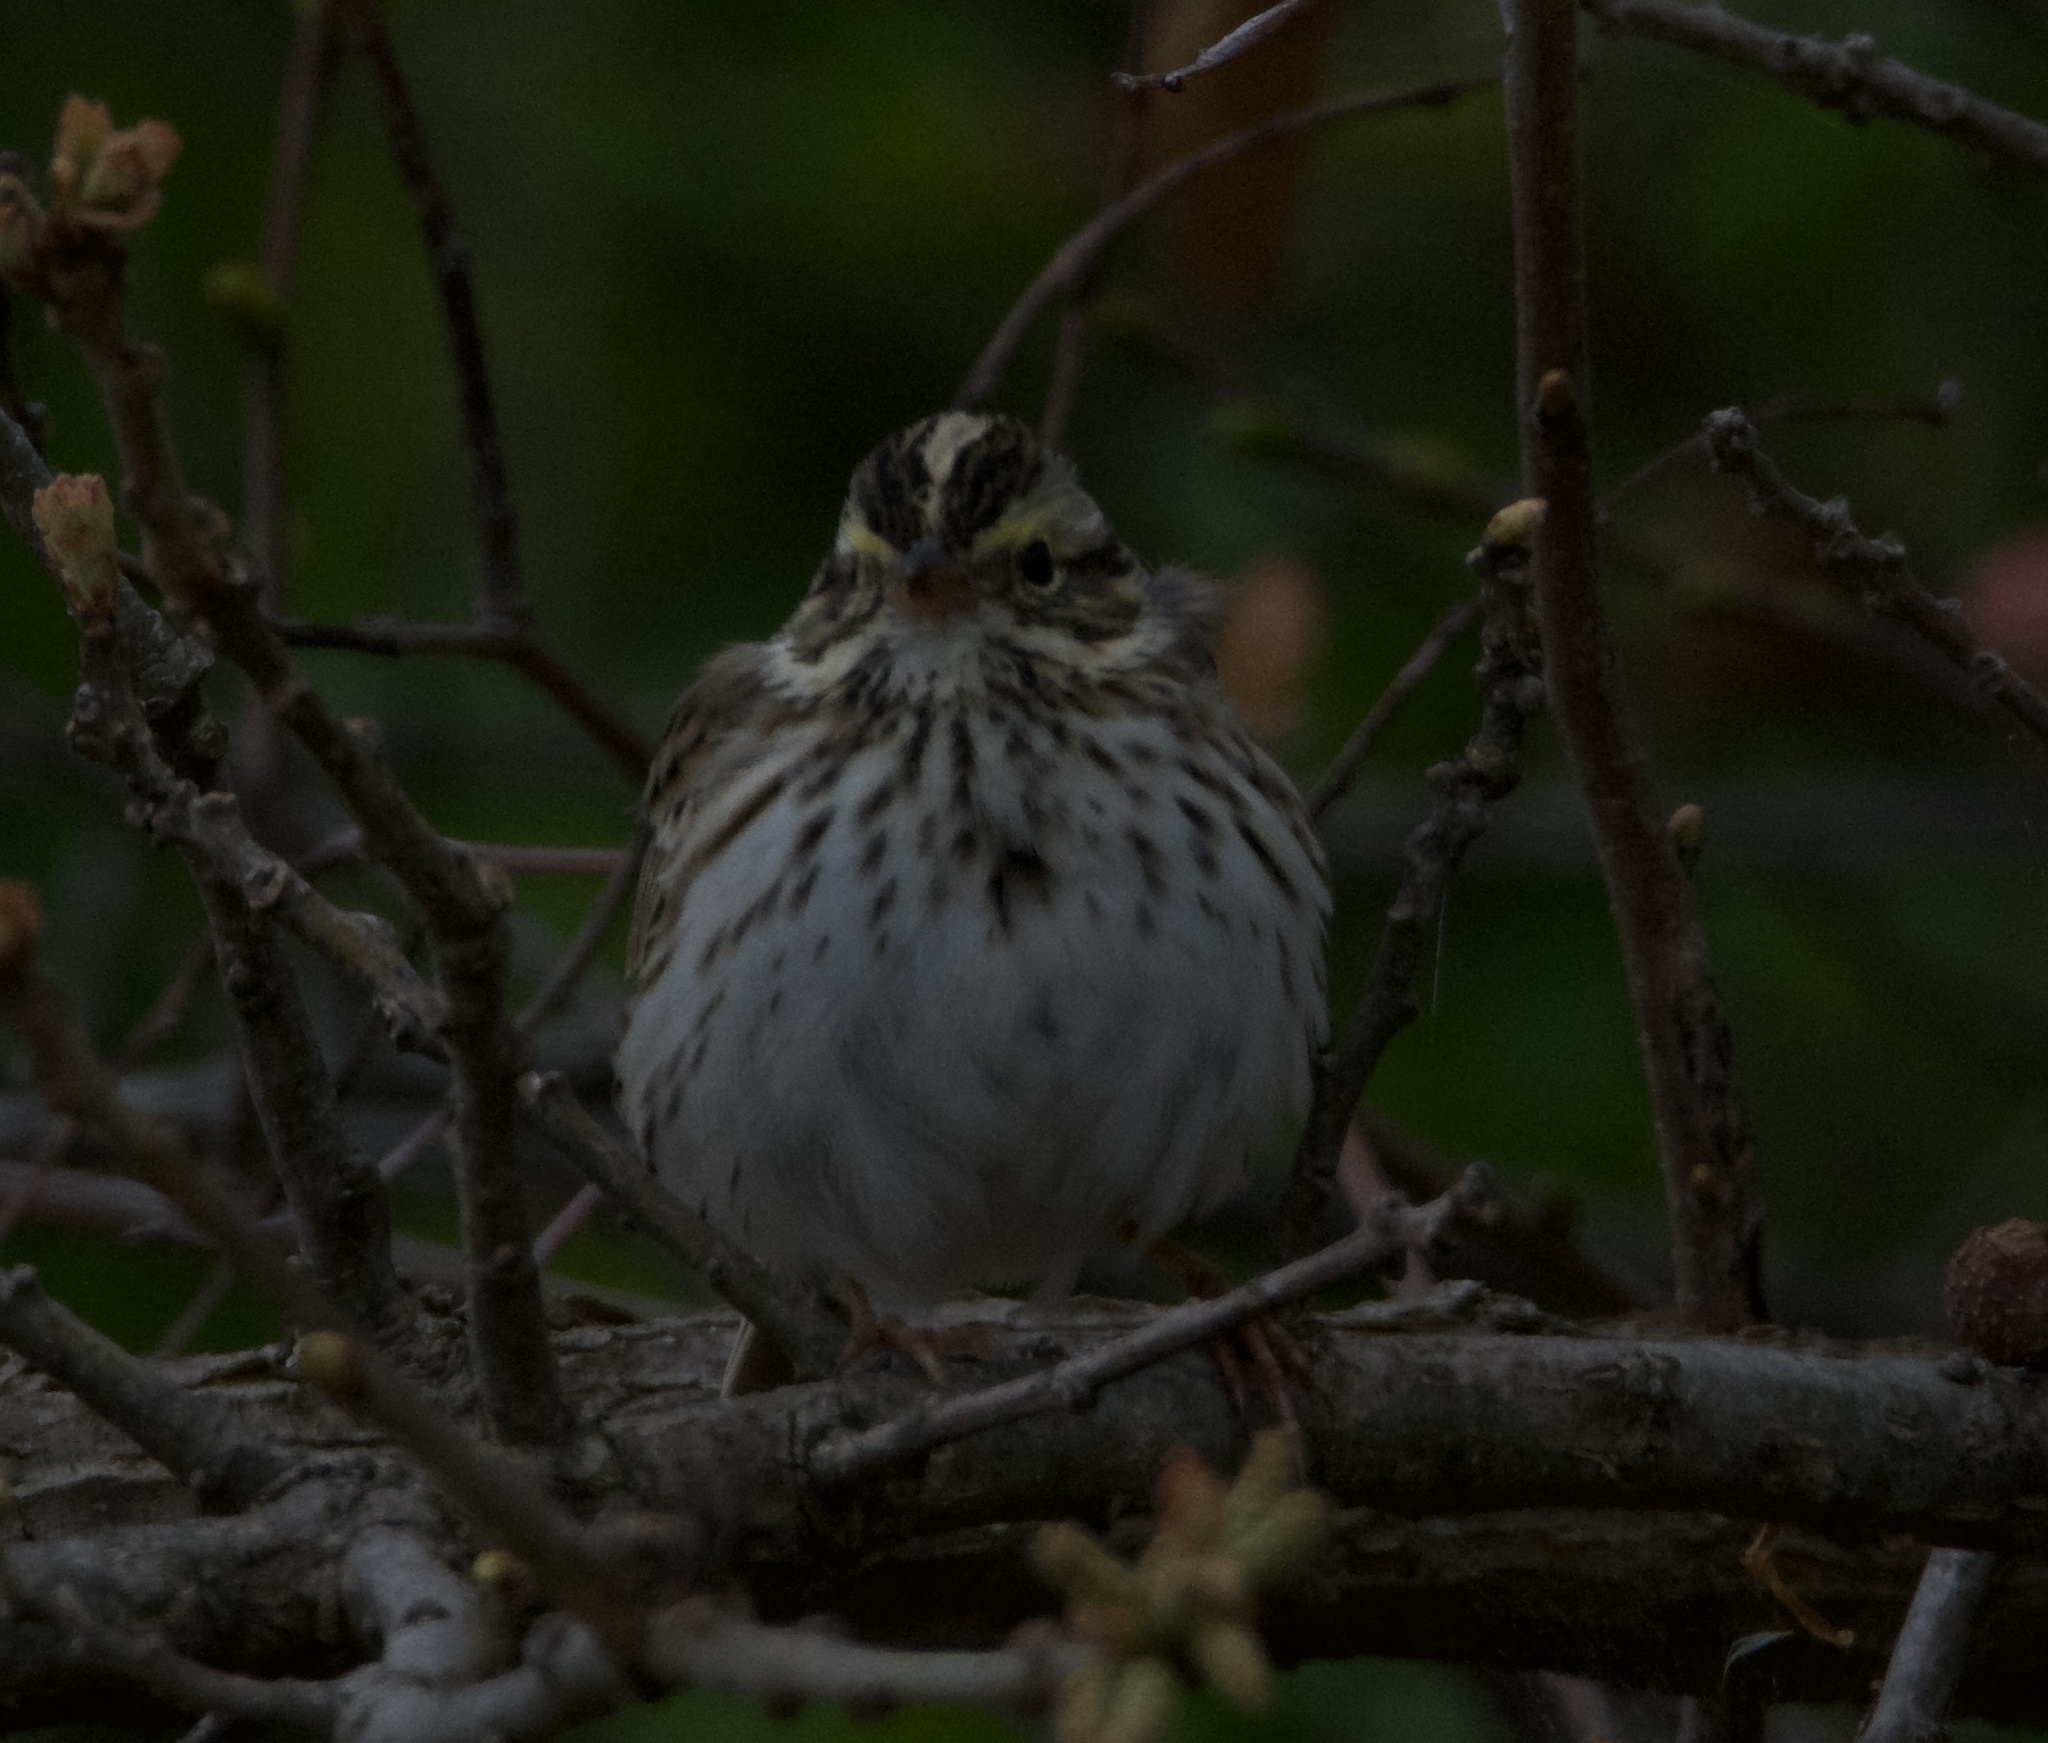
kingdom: Animalia
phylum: Chordata
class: Aves
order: Passeriformes
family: Passerellidae
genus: Passerculus
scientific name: Passerculus sandwichensis
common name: Savannah sparrow
